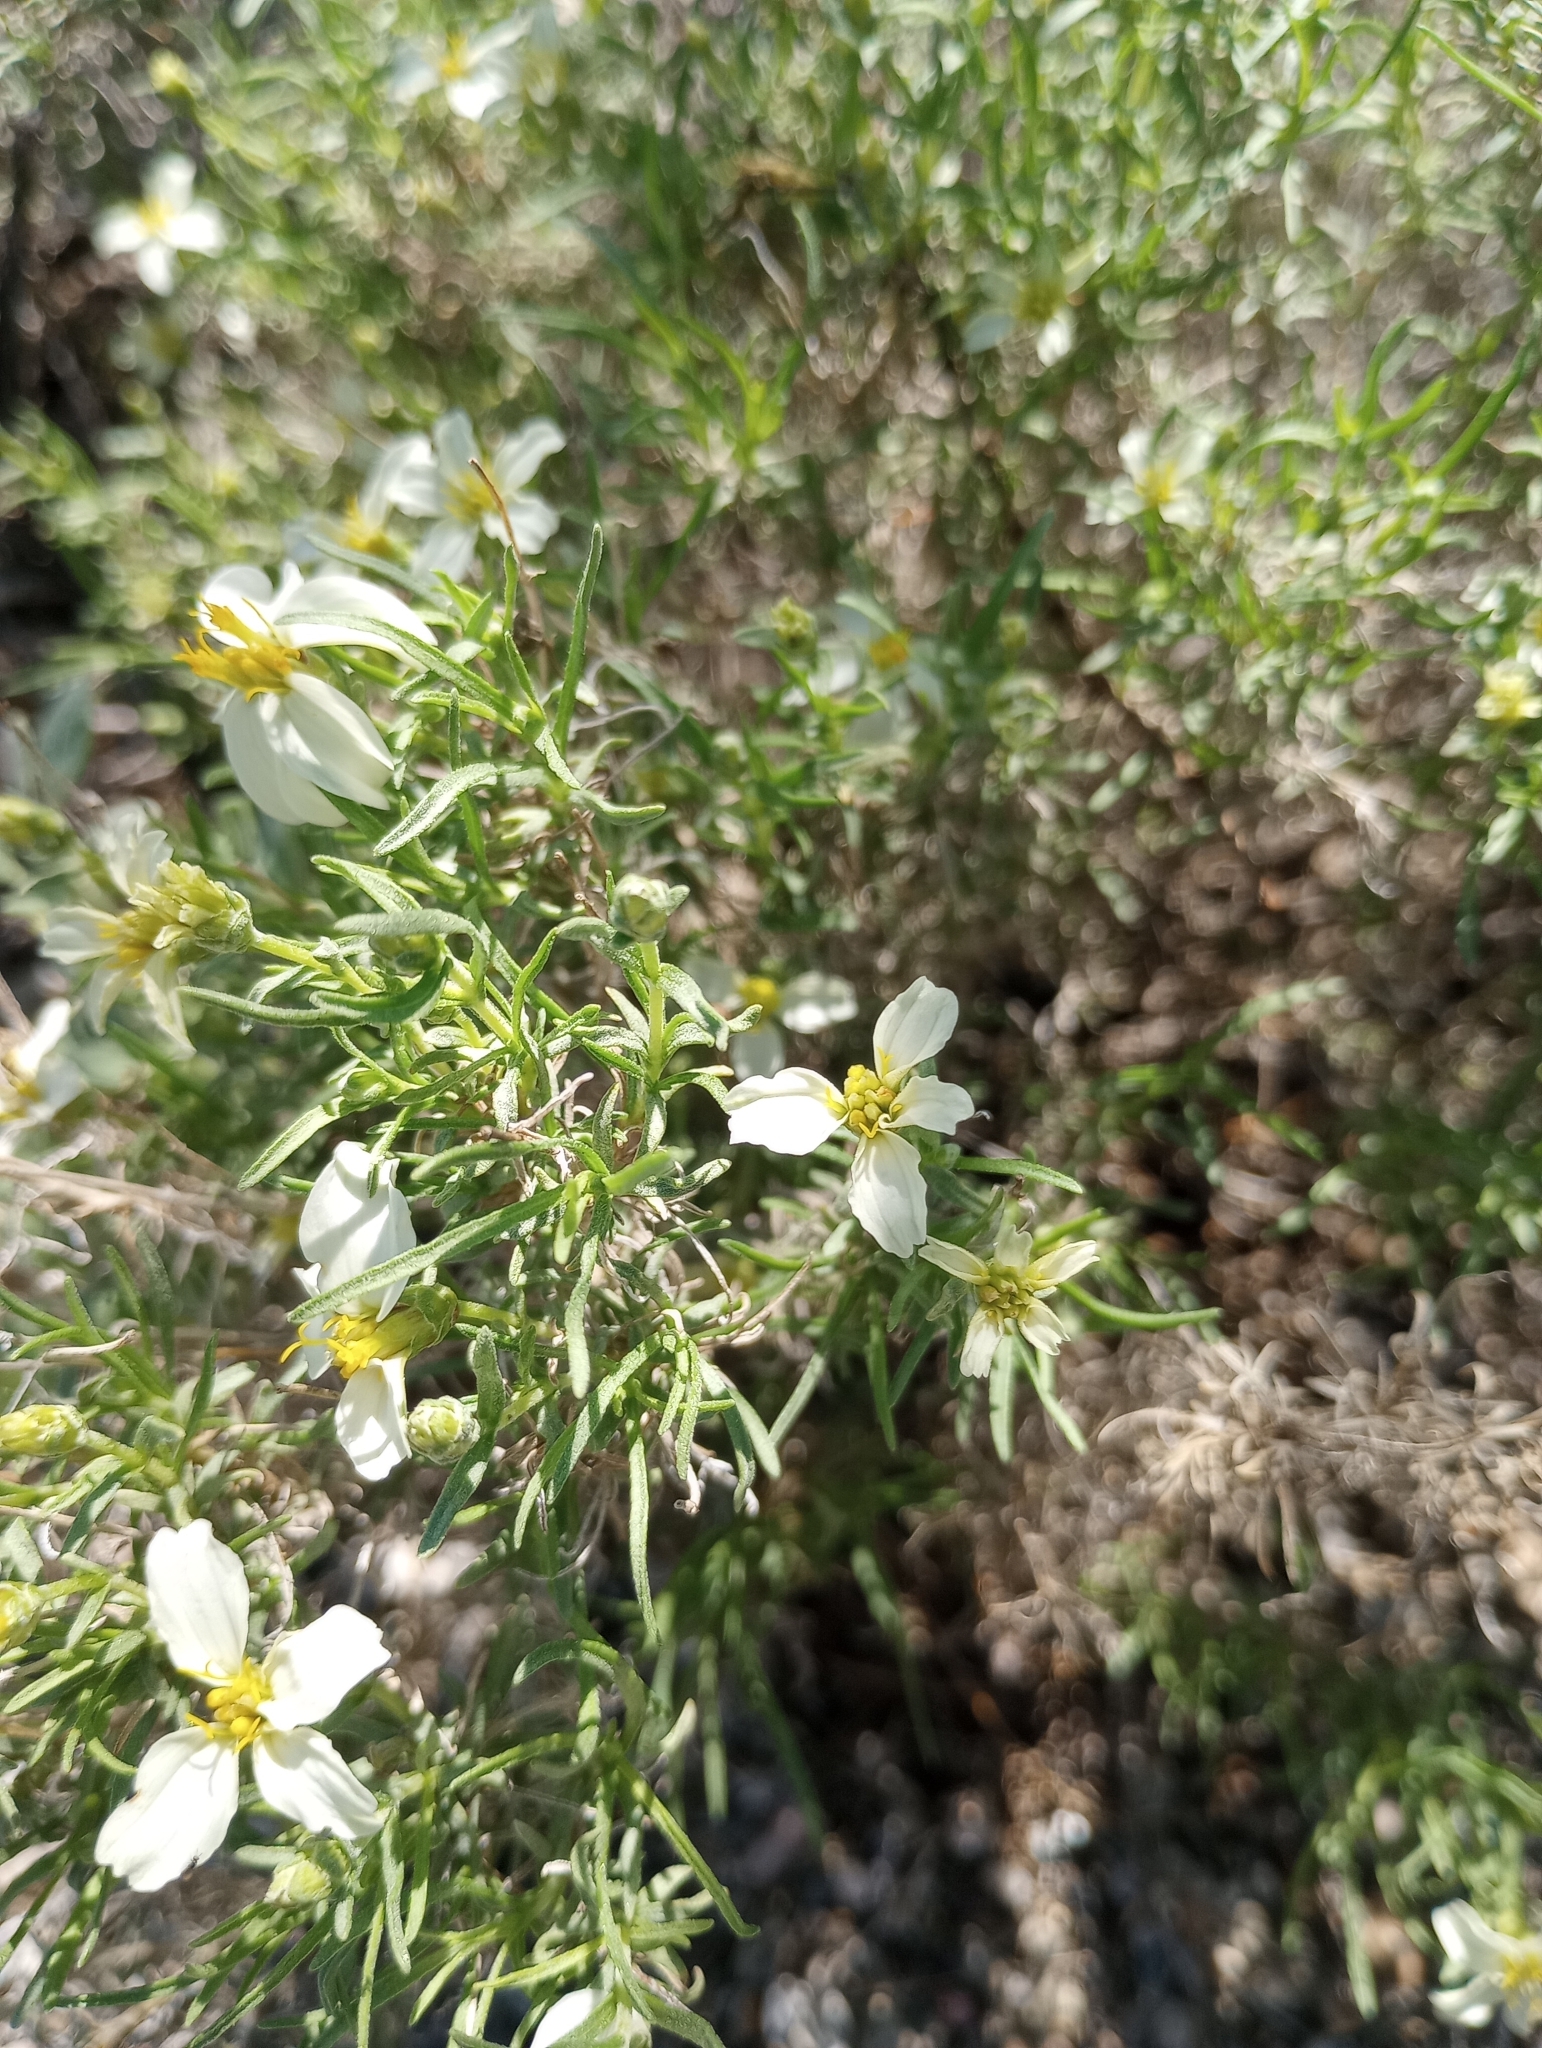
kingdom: Plantae
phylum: Tracheophyta
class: Magnoliopsida
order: Asterales
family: Asteraceae
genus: Zinnia
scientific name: Zinnia acerosa
